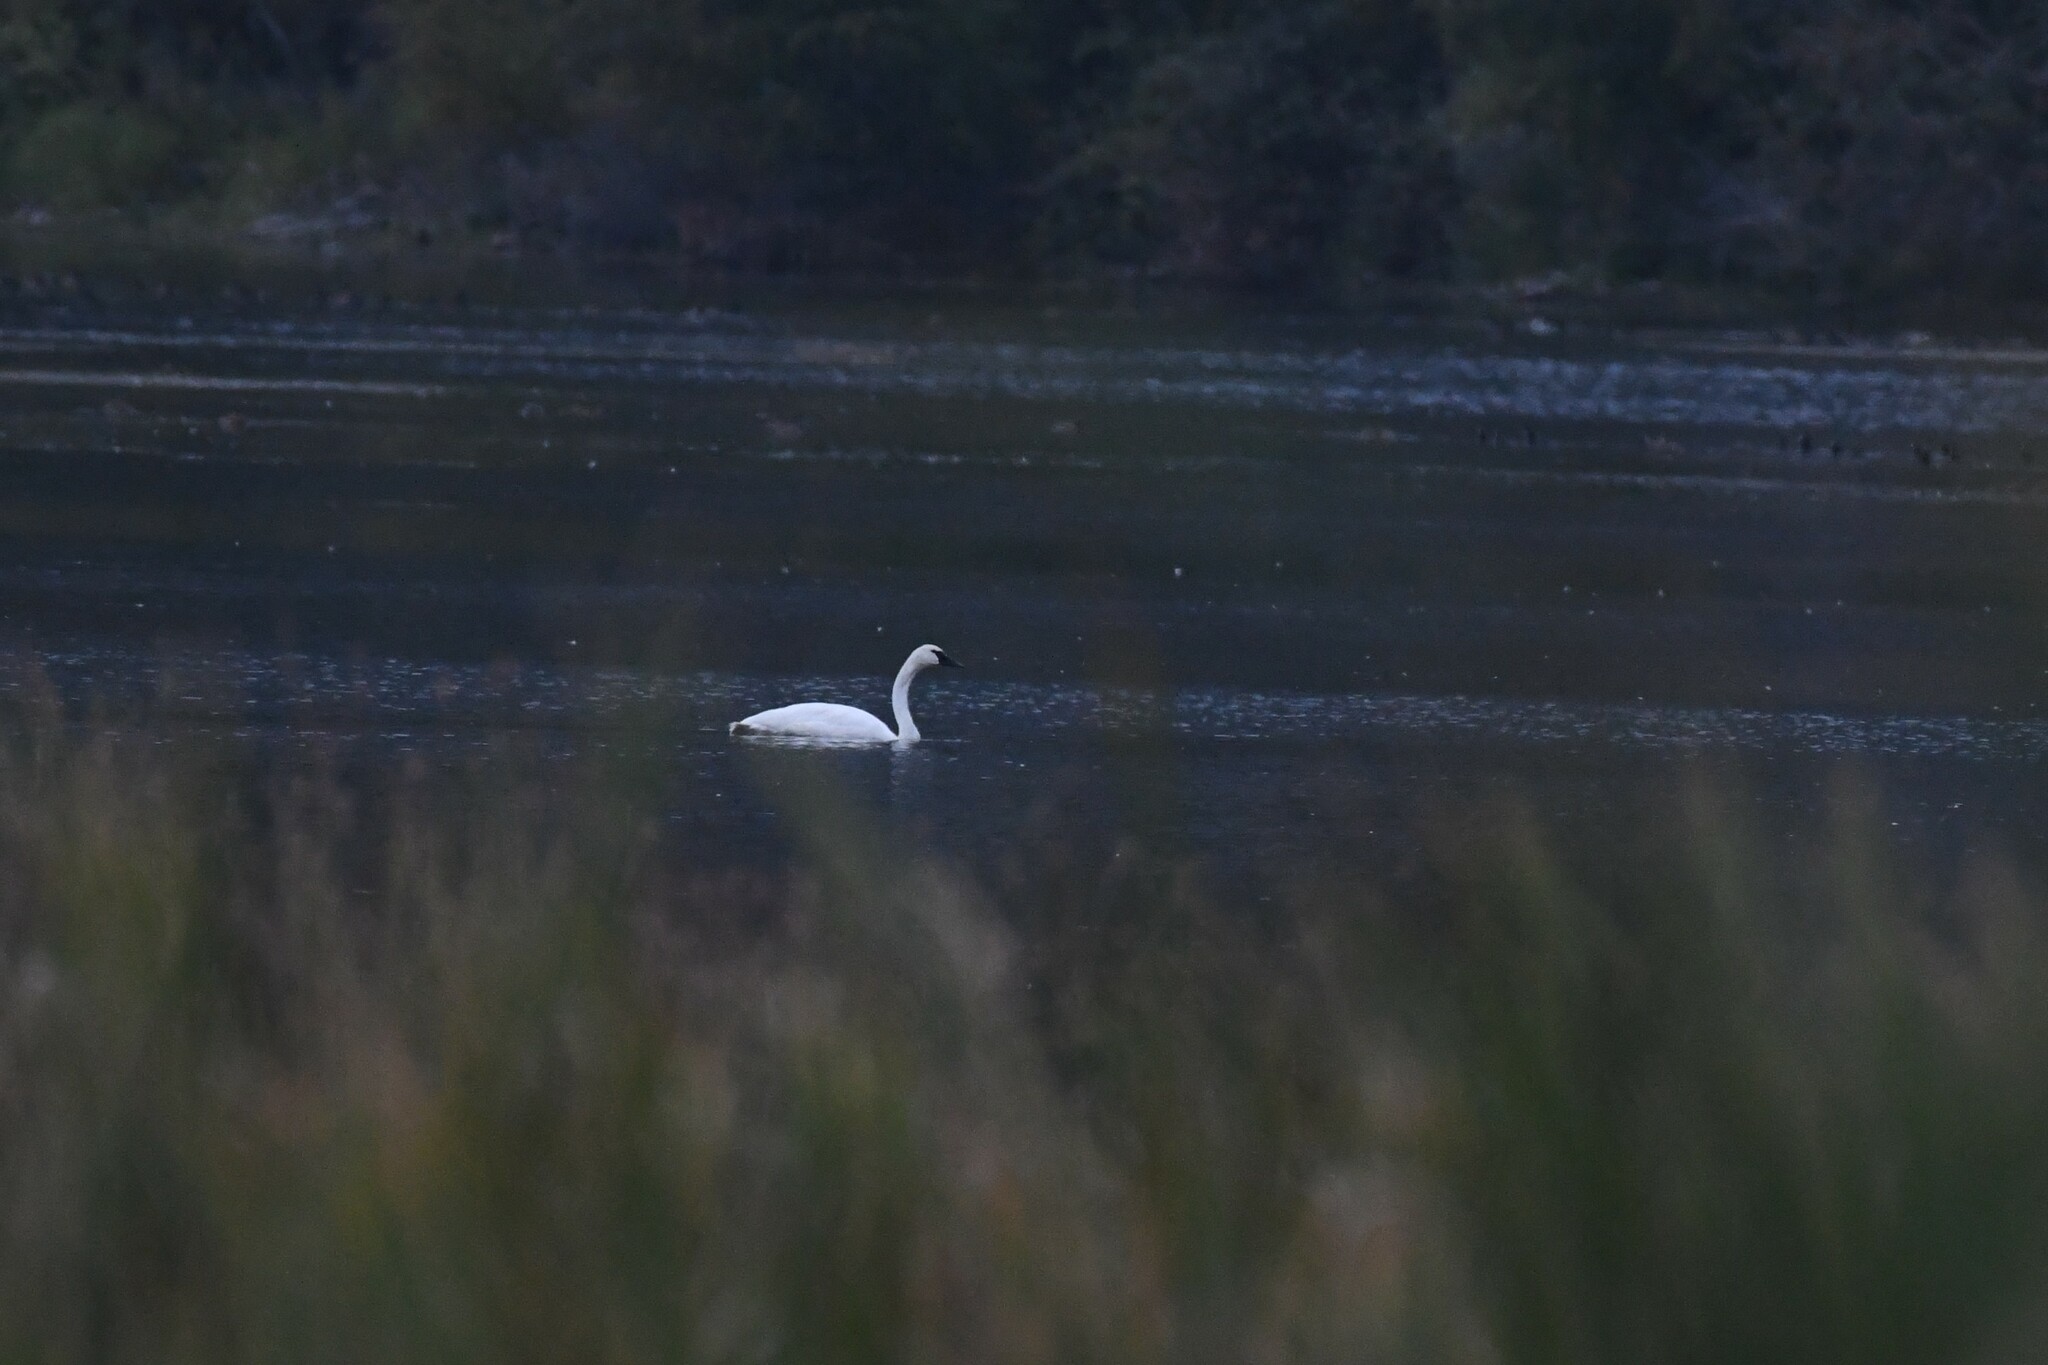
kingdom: Animalia
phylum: Chordata
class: Aves
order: Anseriformes
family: Anatidae
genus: Cygnus
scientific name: Cygnus buccinator
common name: Trumpeter swan
